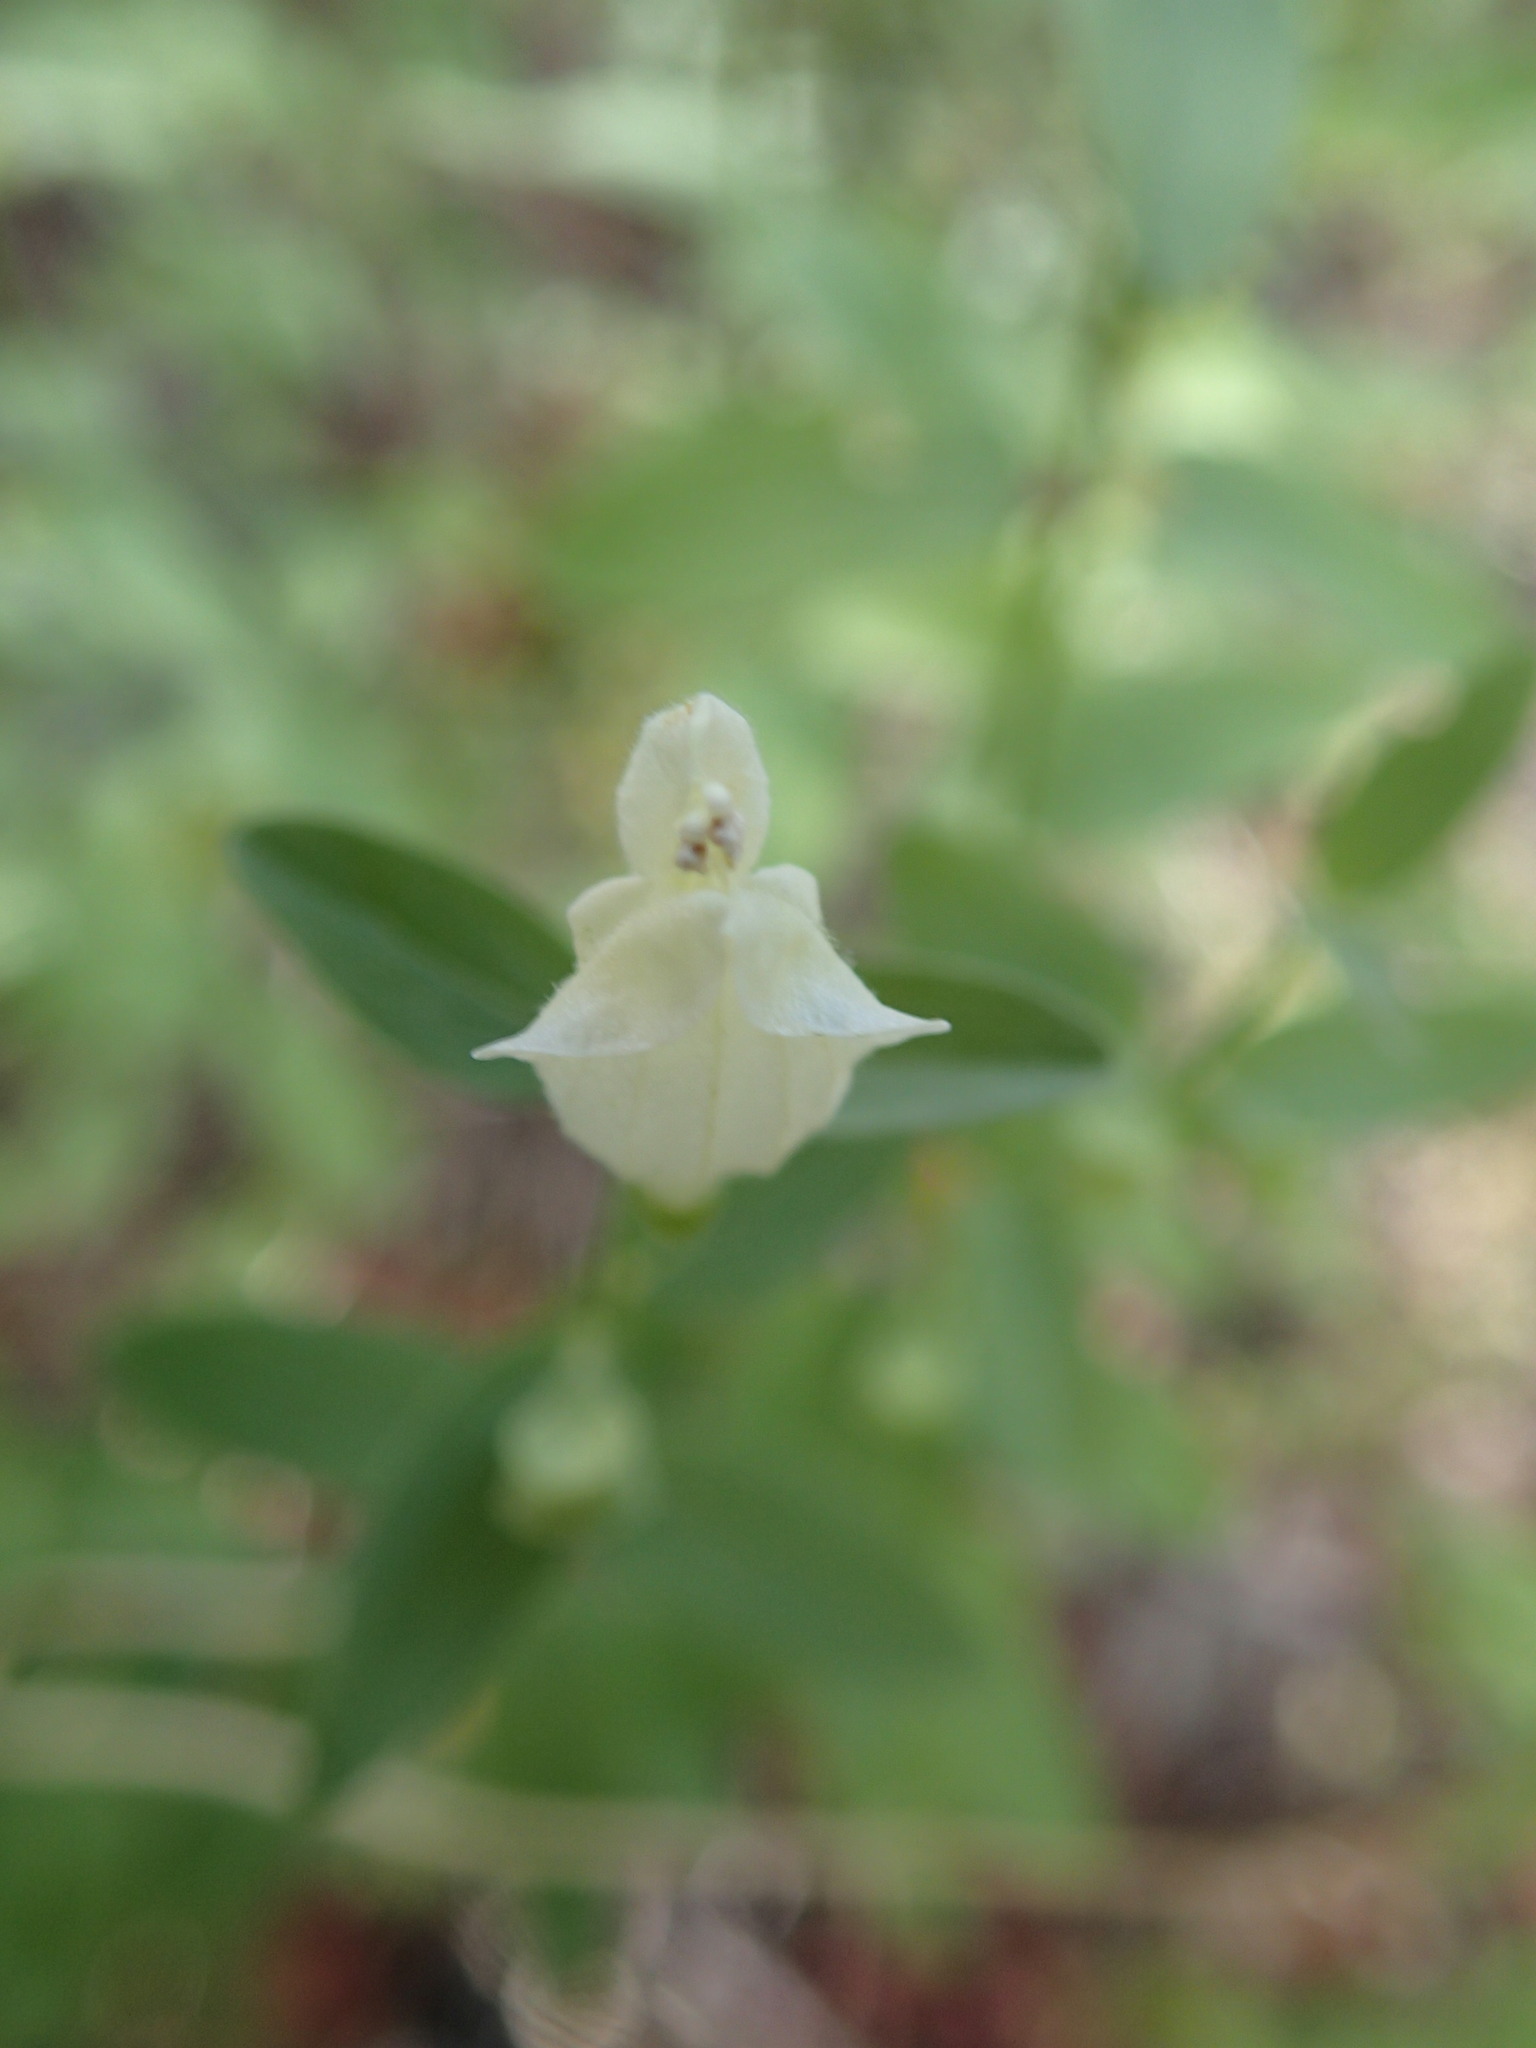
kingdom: Plantae
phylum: Tracheophyta
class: Magnoliopsida
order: Lamiales
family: Lamiaceae
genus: Scutellaria
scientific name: Scutellaria californica
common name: California scullcap
